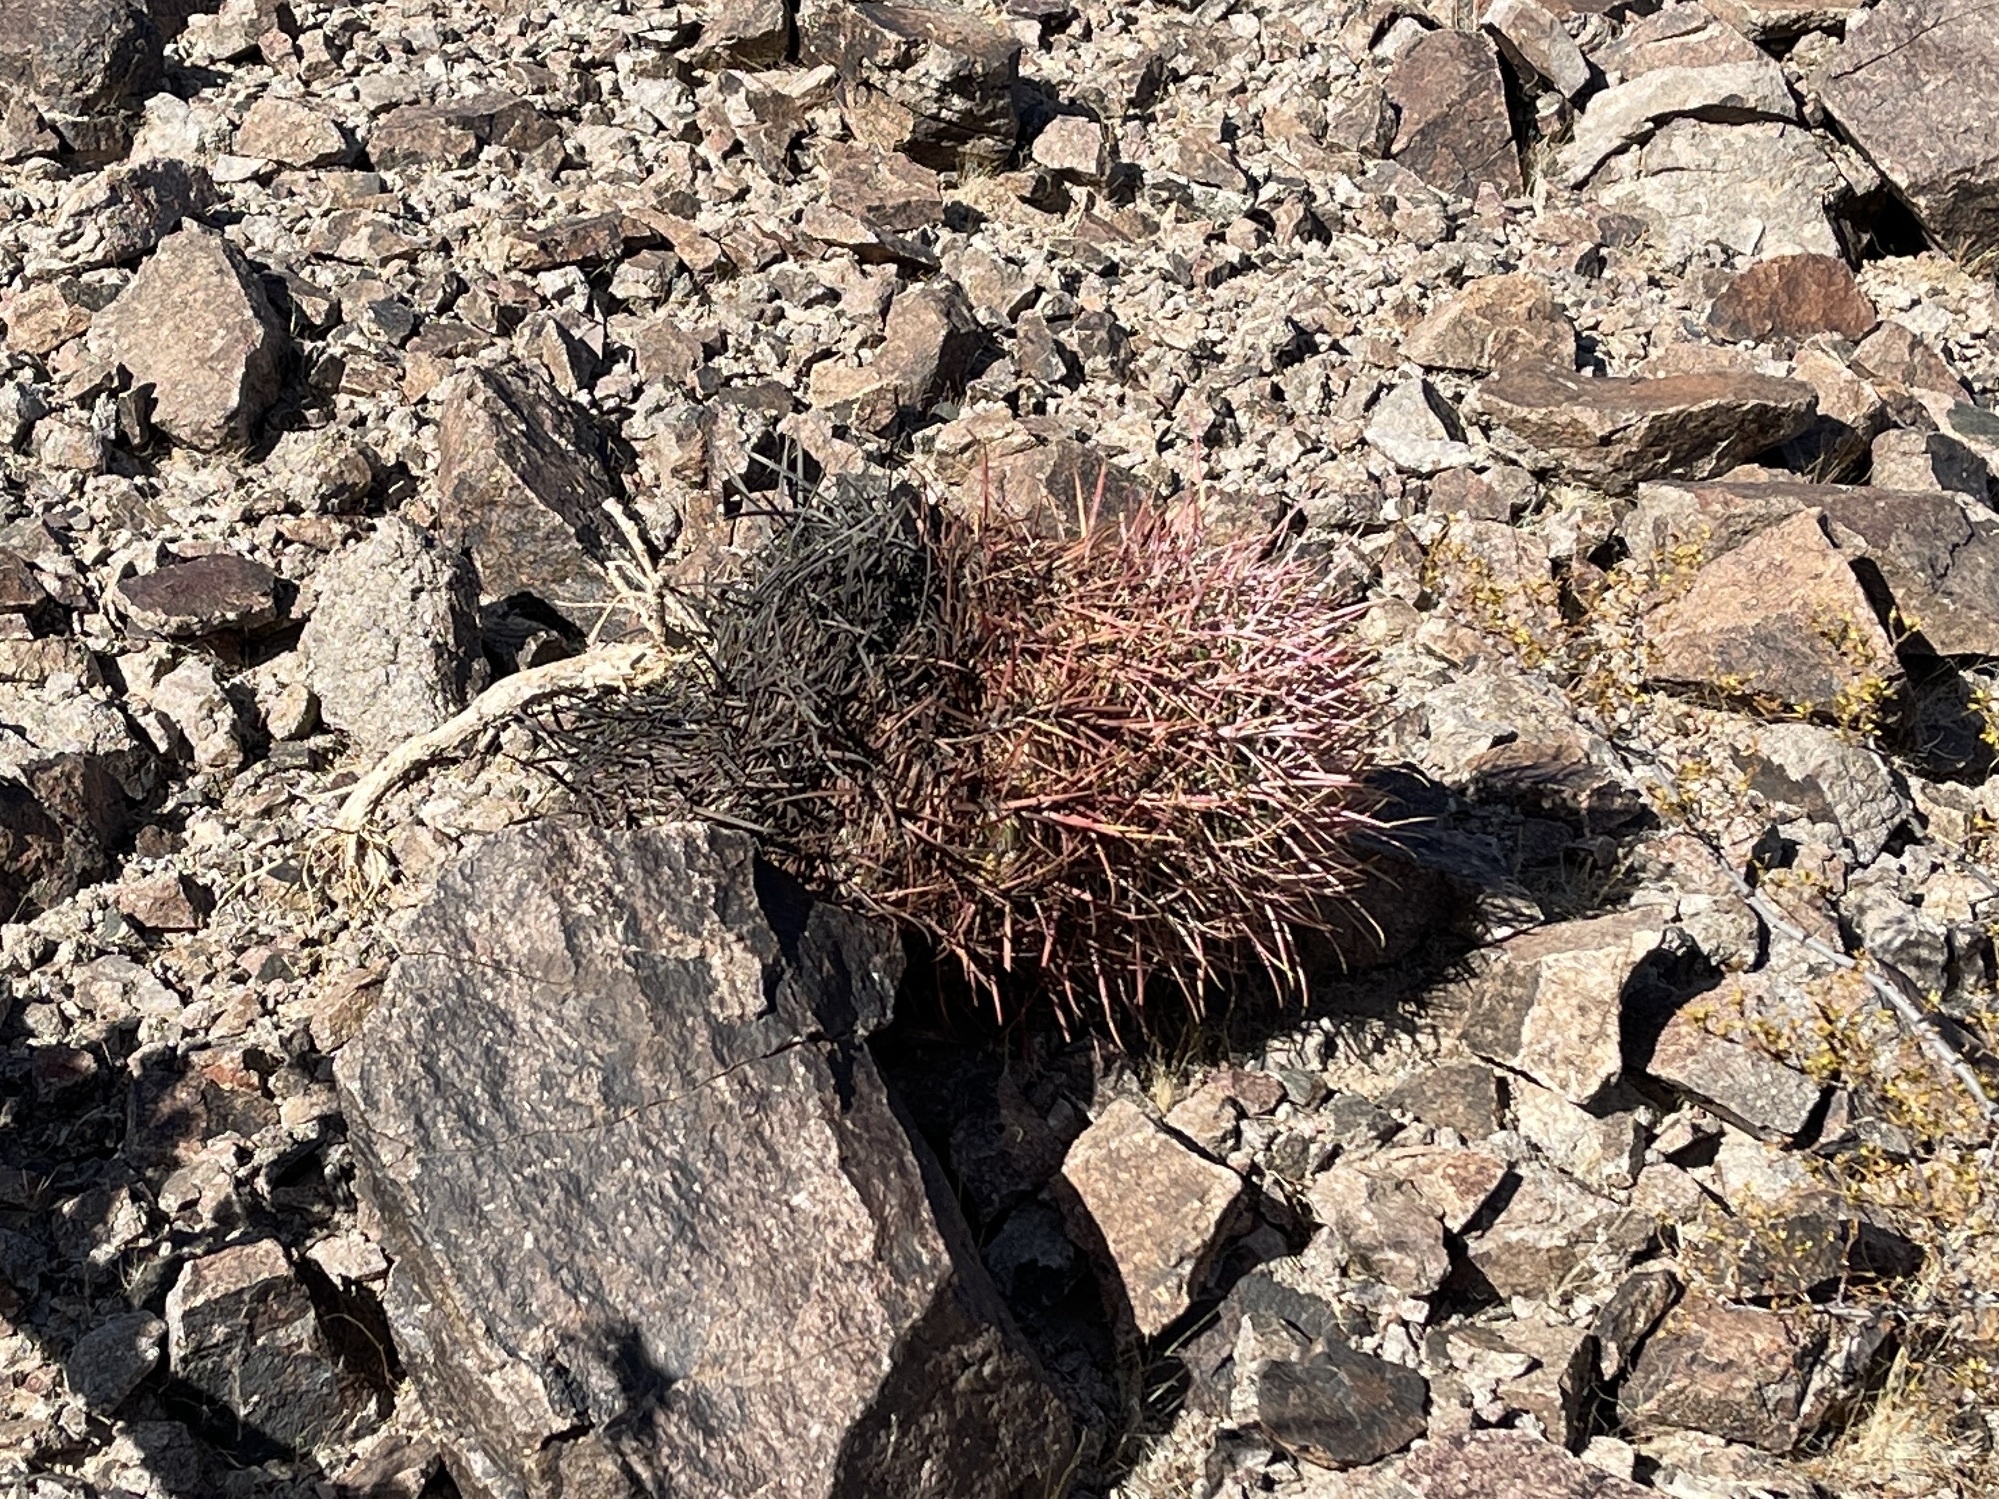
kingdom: Plantae
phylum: Tracheophyta
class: Magnoliopsida
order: Caryophyllales
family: Cactaceae
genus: Ferocactus
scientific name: Ferocactus cylindraceus
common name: California barrel cactus
